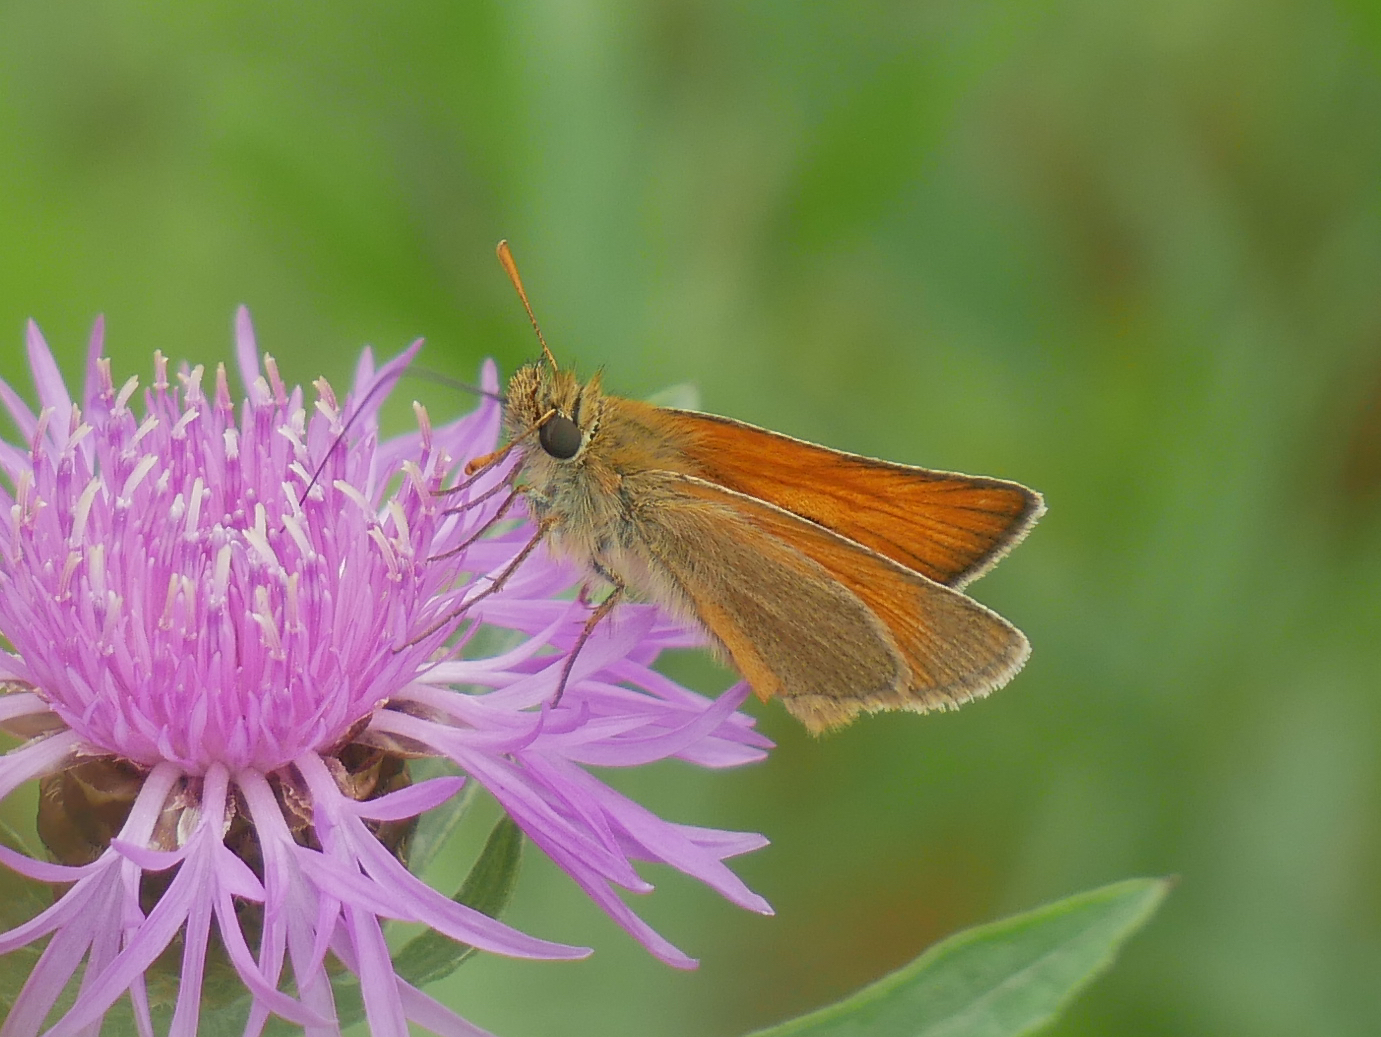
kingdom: Animalia
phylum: Arthropoda
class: Insecta
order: Lepidoptera
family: Hesperiidae
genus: Thymelicus
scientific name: Thymelicus sylvestris
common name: Small skipper
